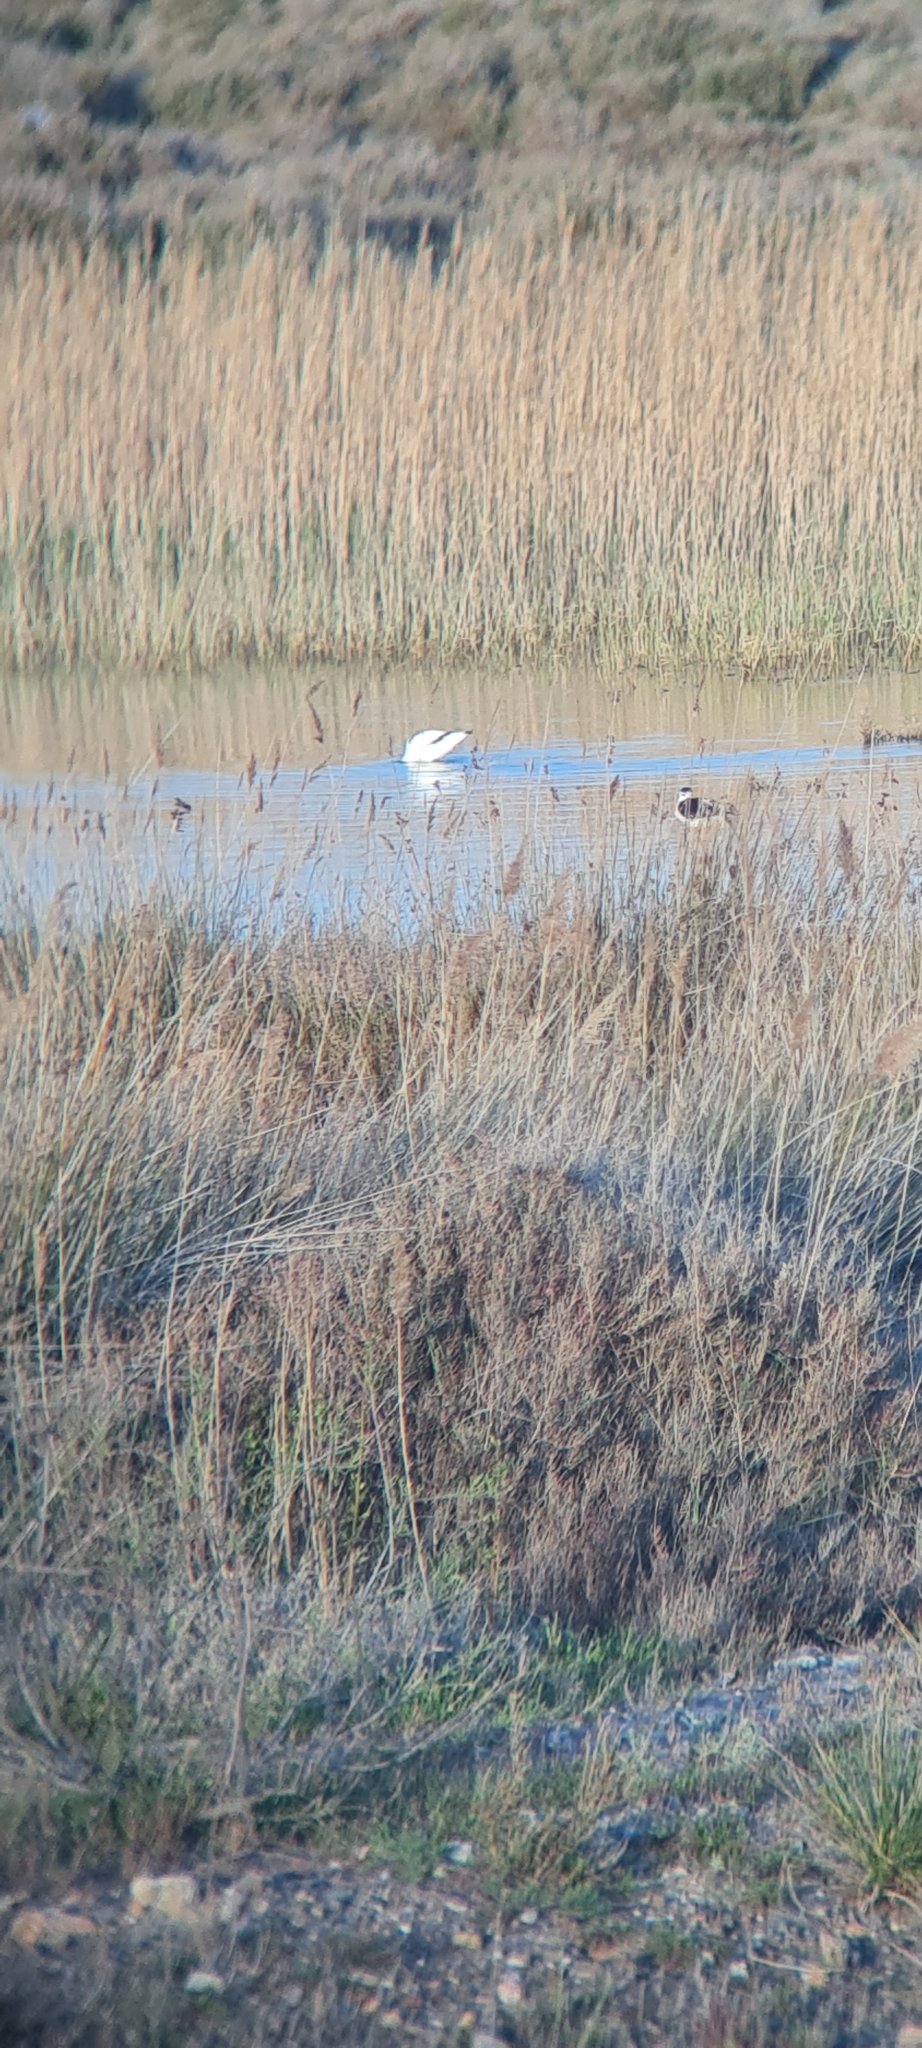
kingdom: Animalia
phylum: Chordata
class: Aves
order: Charadriiformes
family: Recurvirostridae
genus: Recurvirostra
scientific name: Recurvirostra avosetta
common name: Pied avocet
